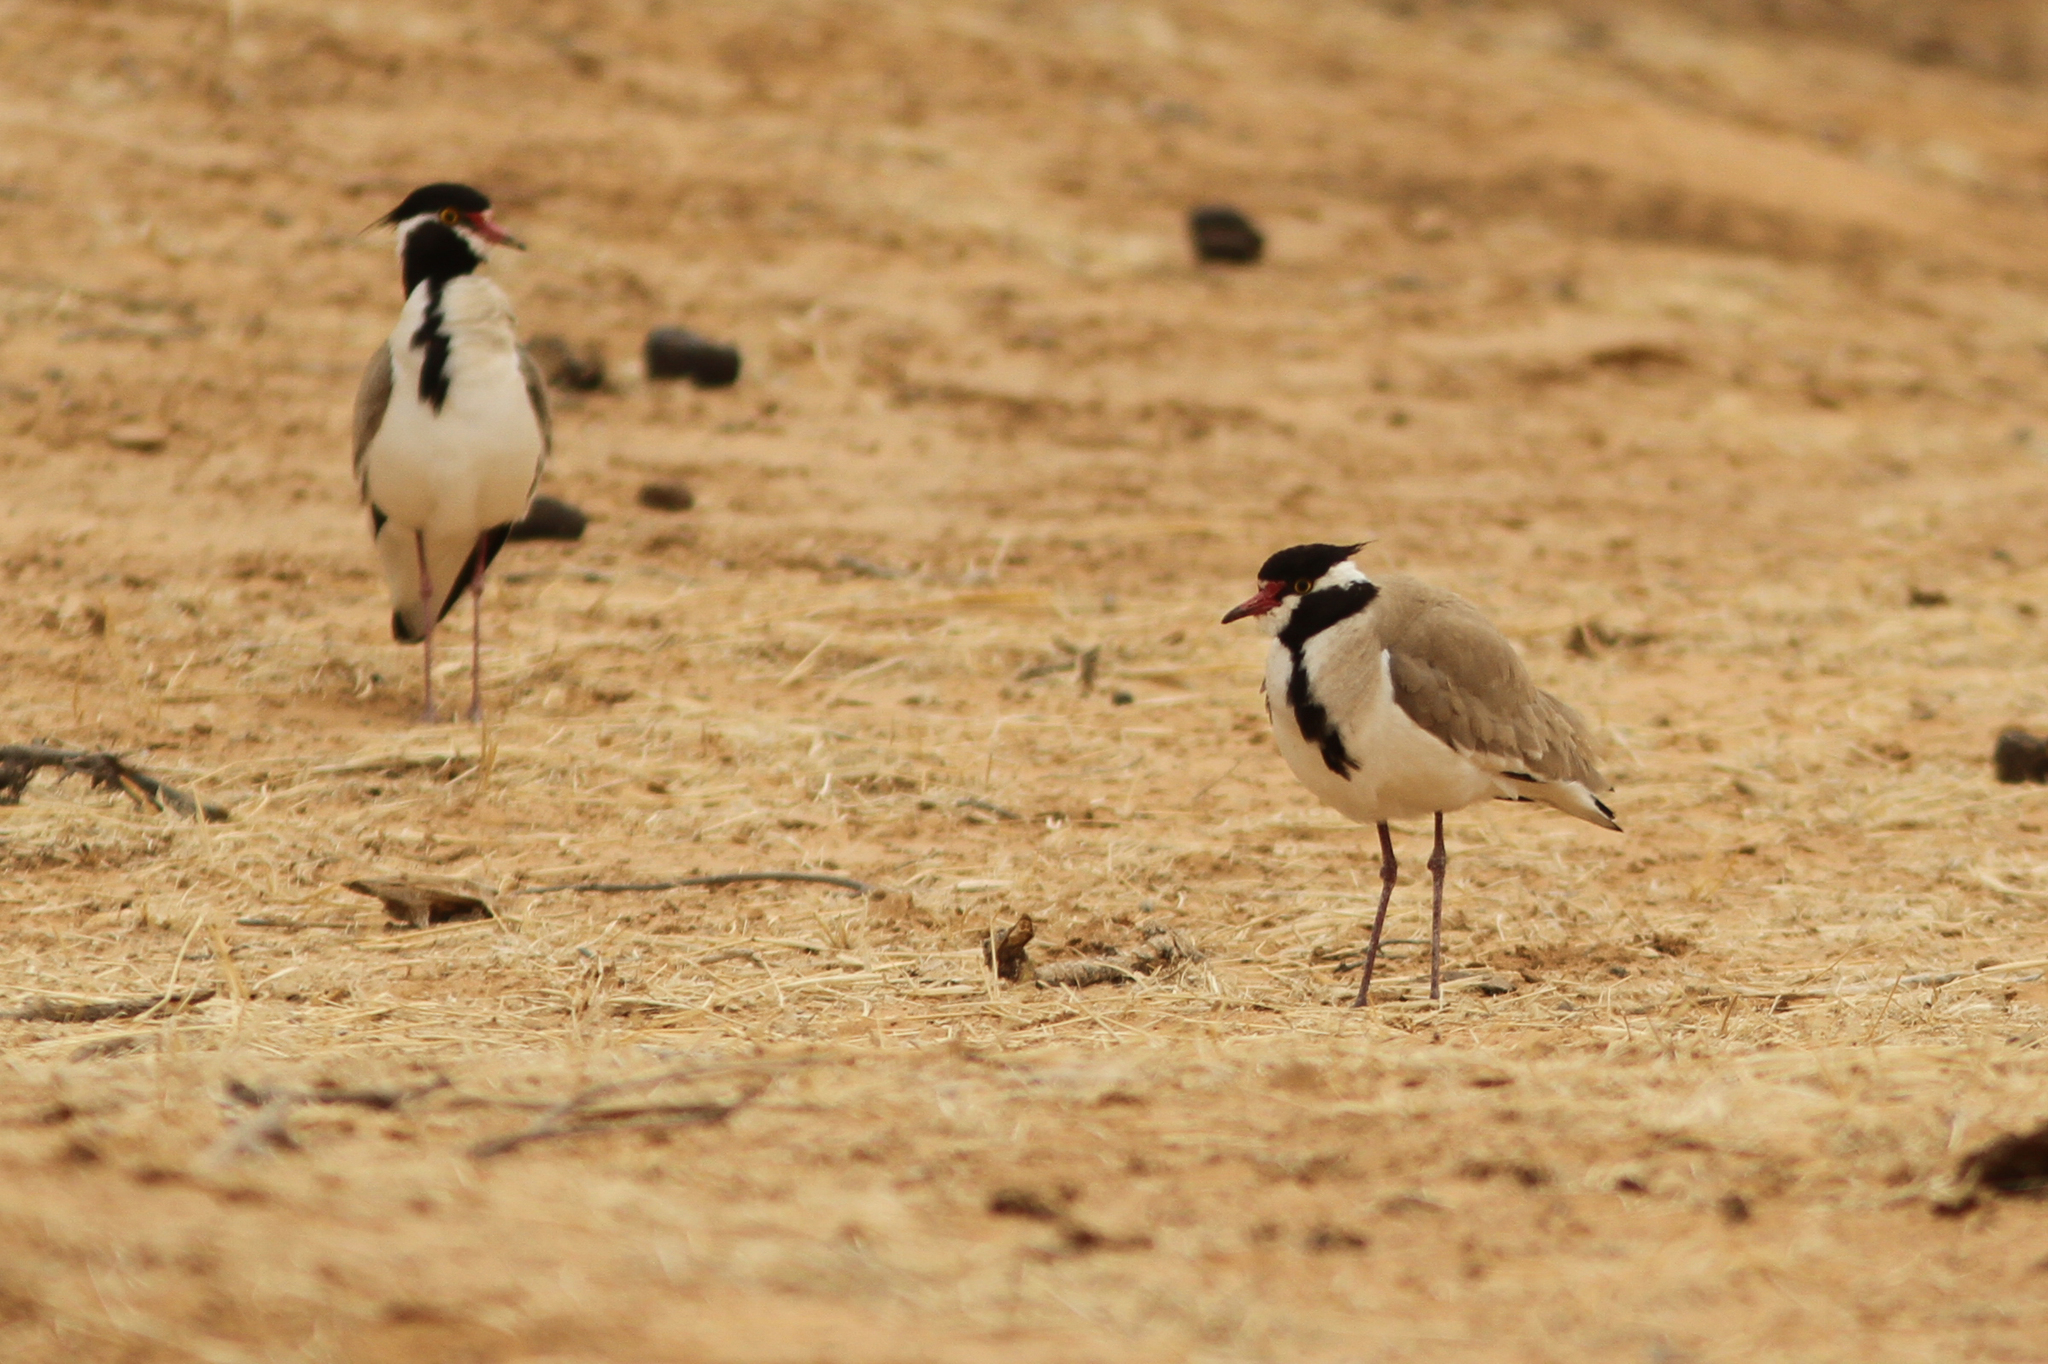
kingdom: Animalia
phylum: Chordata
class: Aves
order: Charadriiformes
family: Charadriidae
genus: Vanellus
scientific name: Vanellus tectus
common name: Black-headed lapwing
